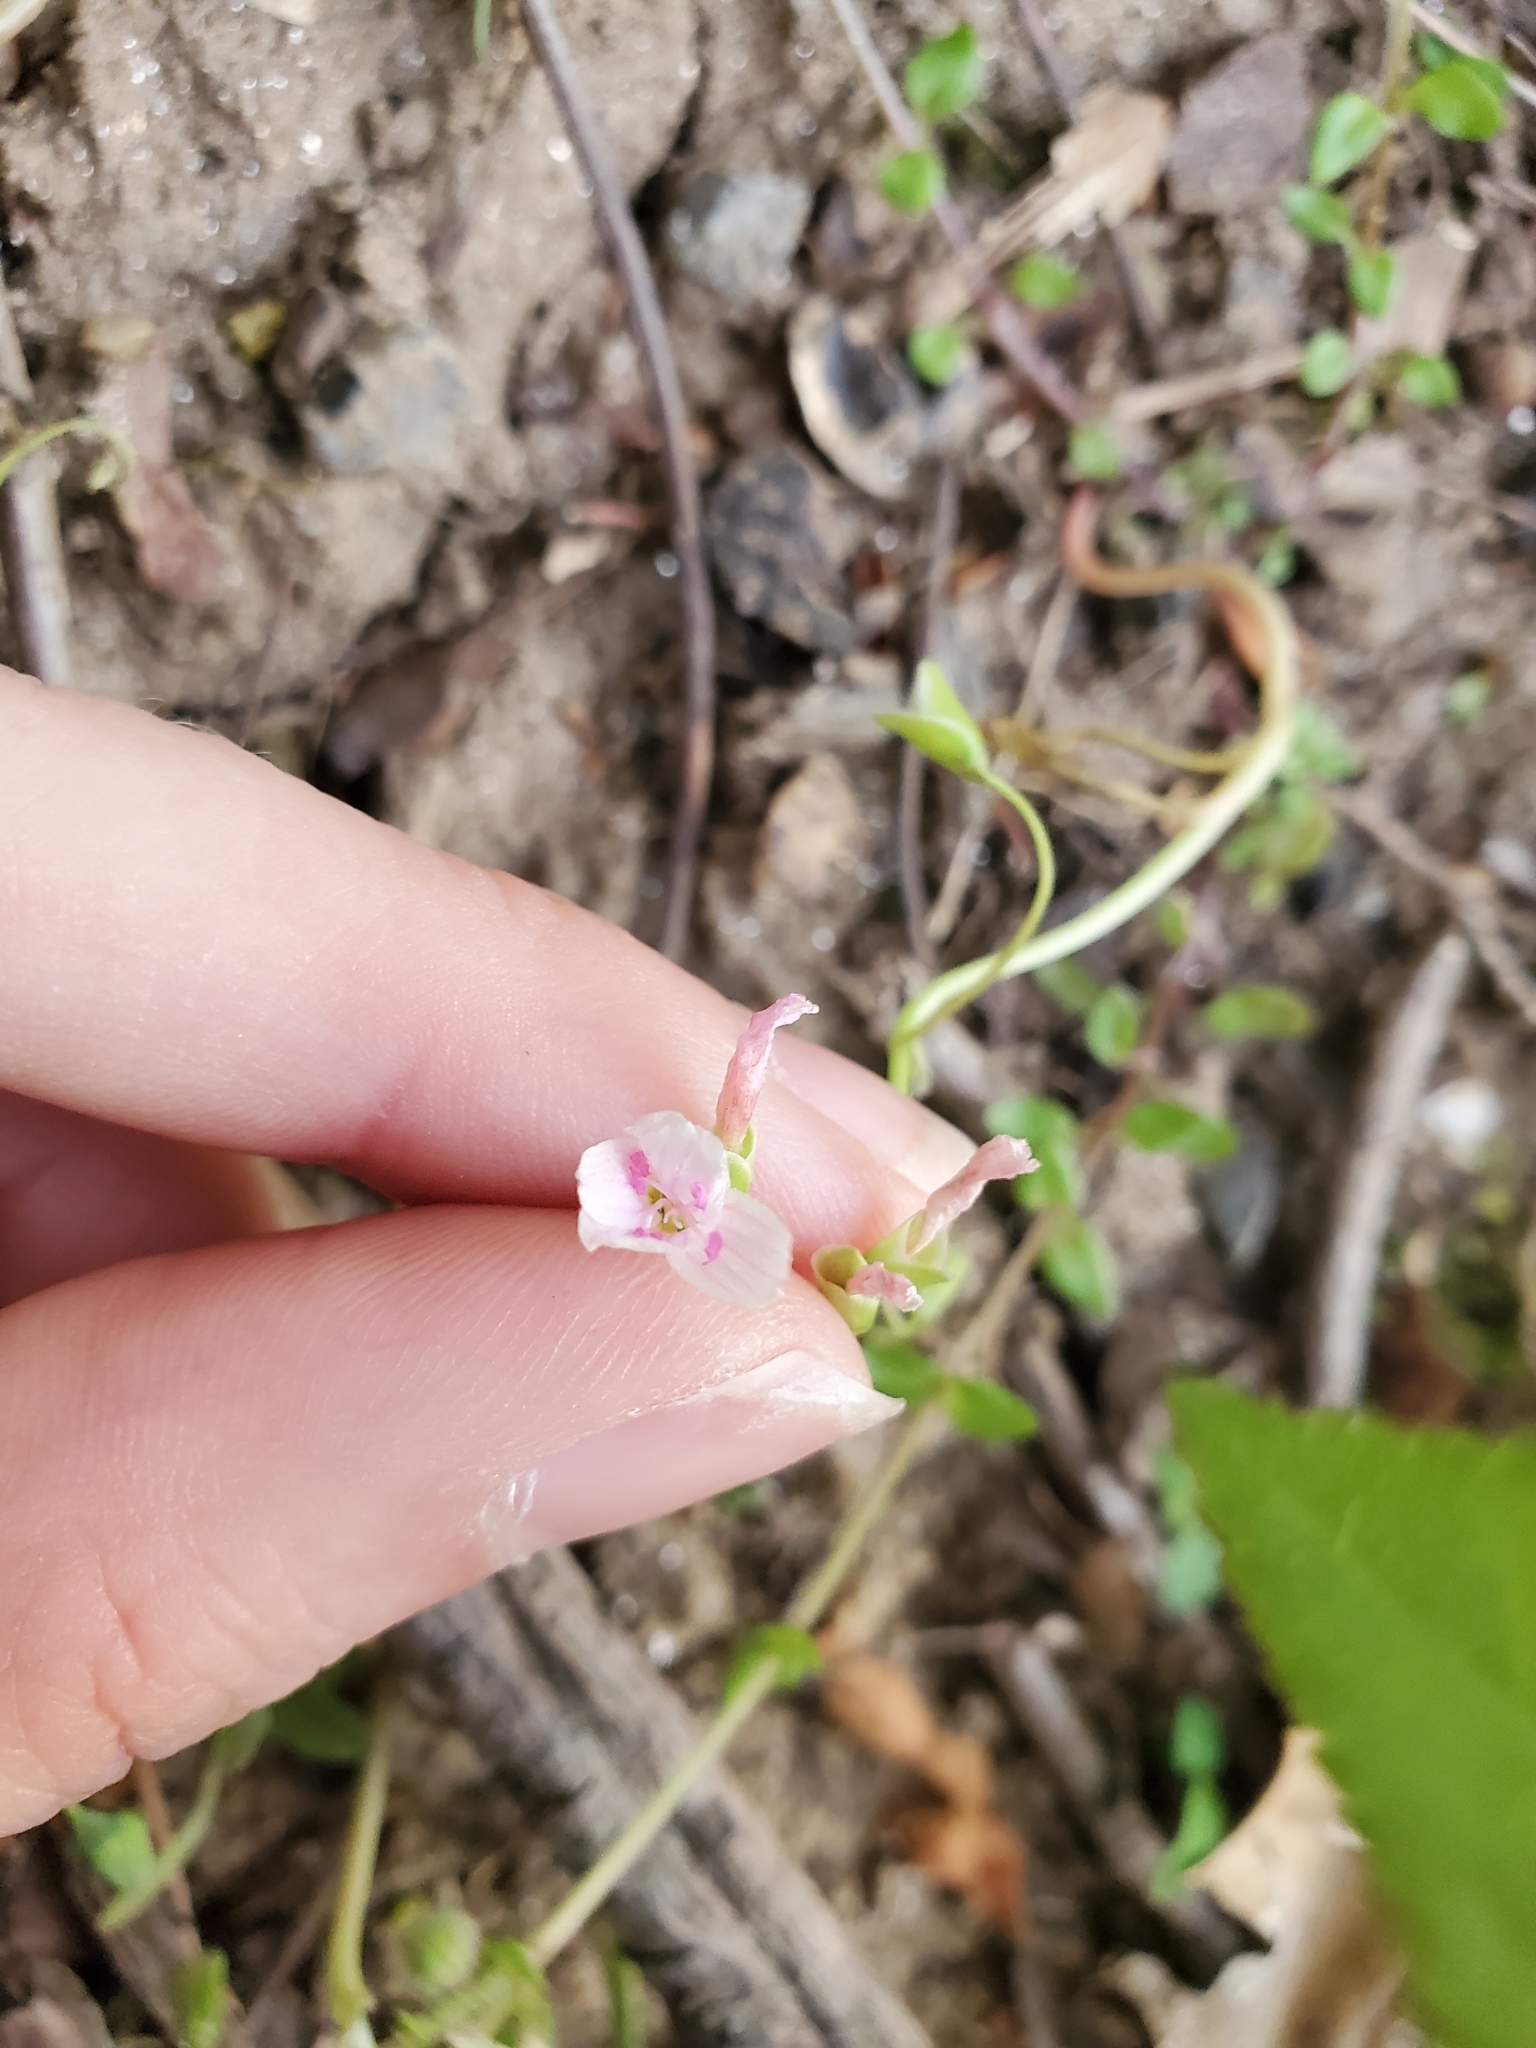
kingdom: Plantae
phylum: Tracheophyta
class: Magnoliopsida
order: Caryophyllales
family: Montiaceae
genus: Claytonia
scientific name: Claytonia virginica
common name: Virginia springbeauty
